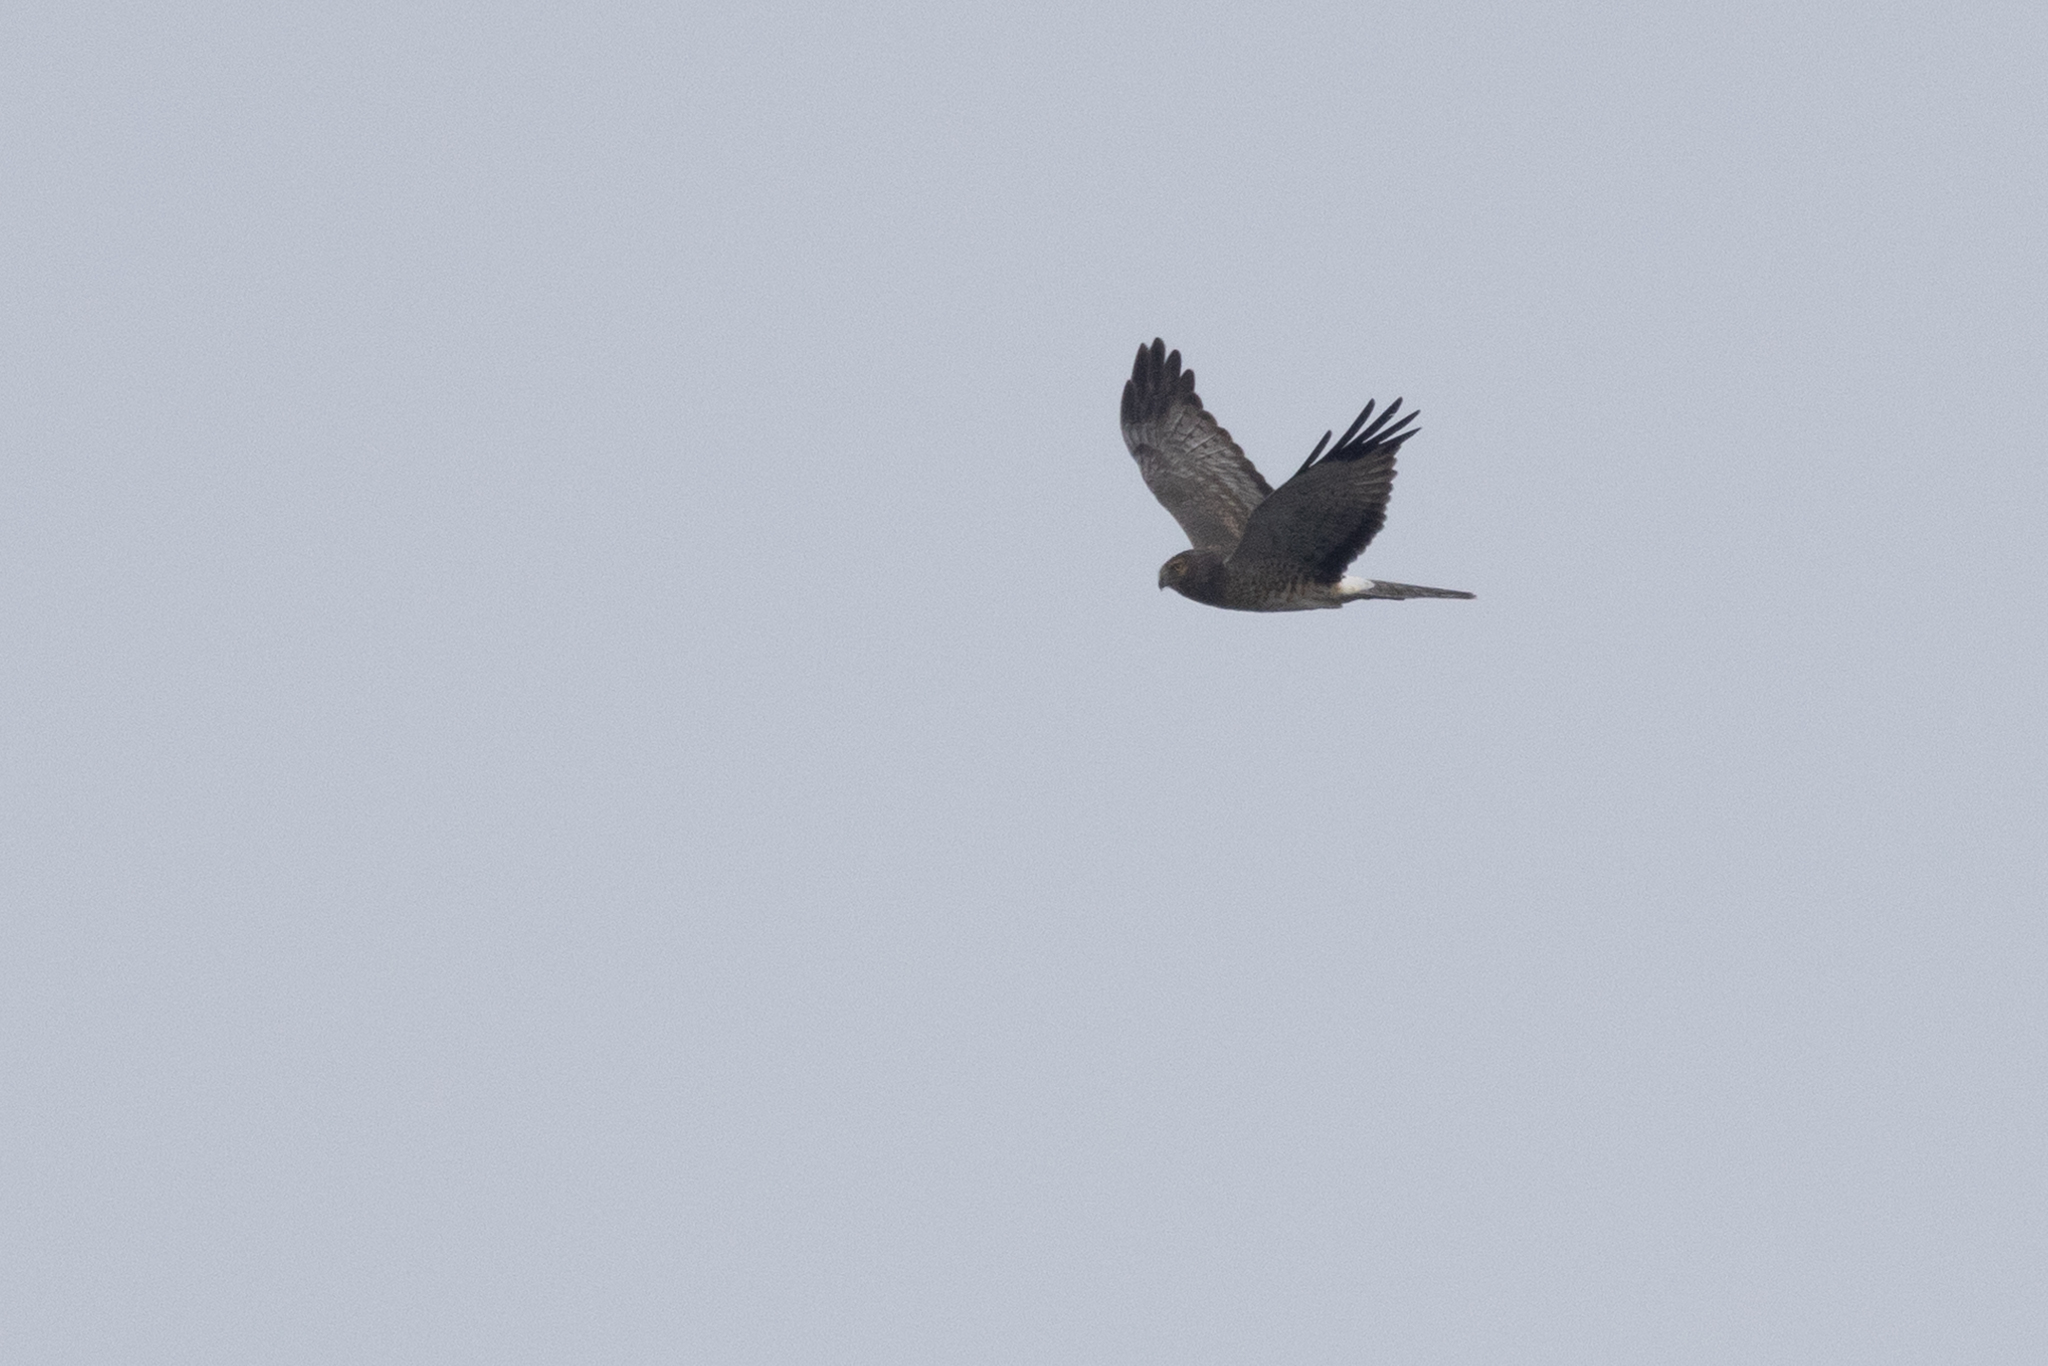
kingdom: Animalia
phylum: Chordata
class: Aves
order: Accipitriformes
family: Accipitridae
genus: Circus
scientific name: Circus cyaneus
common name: Hen harrier
